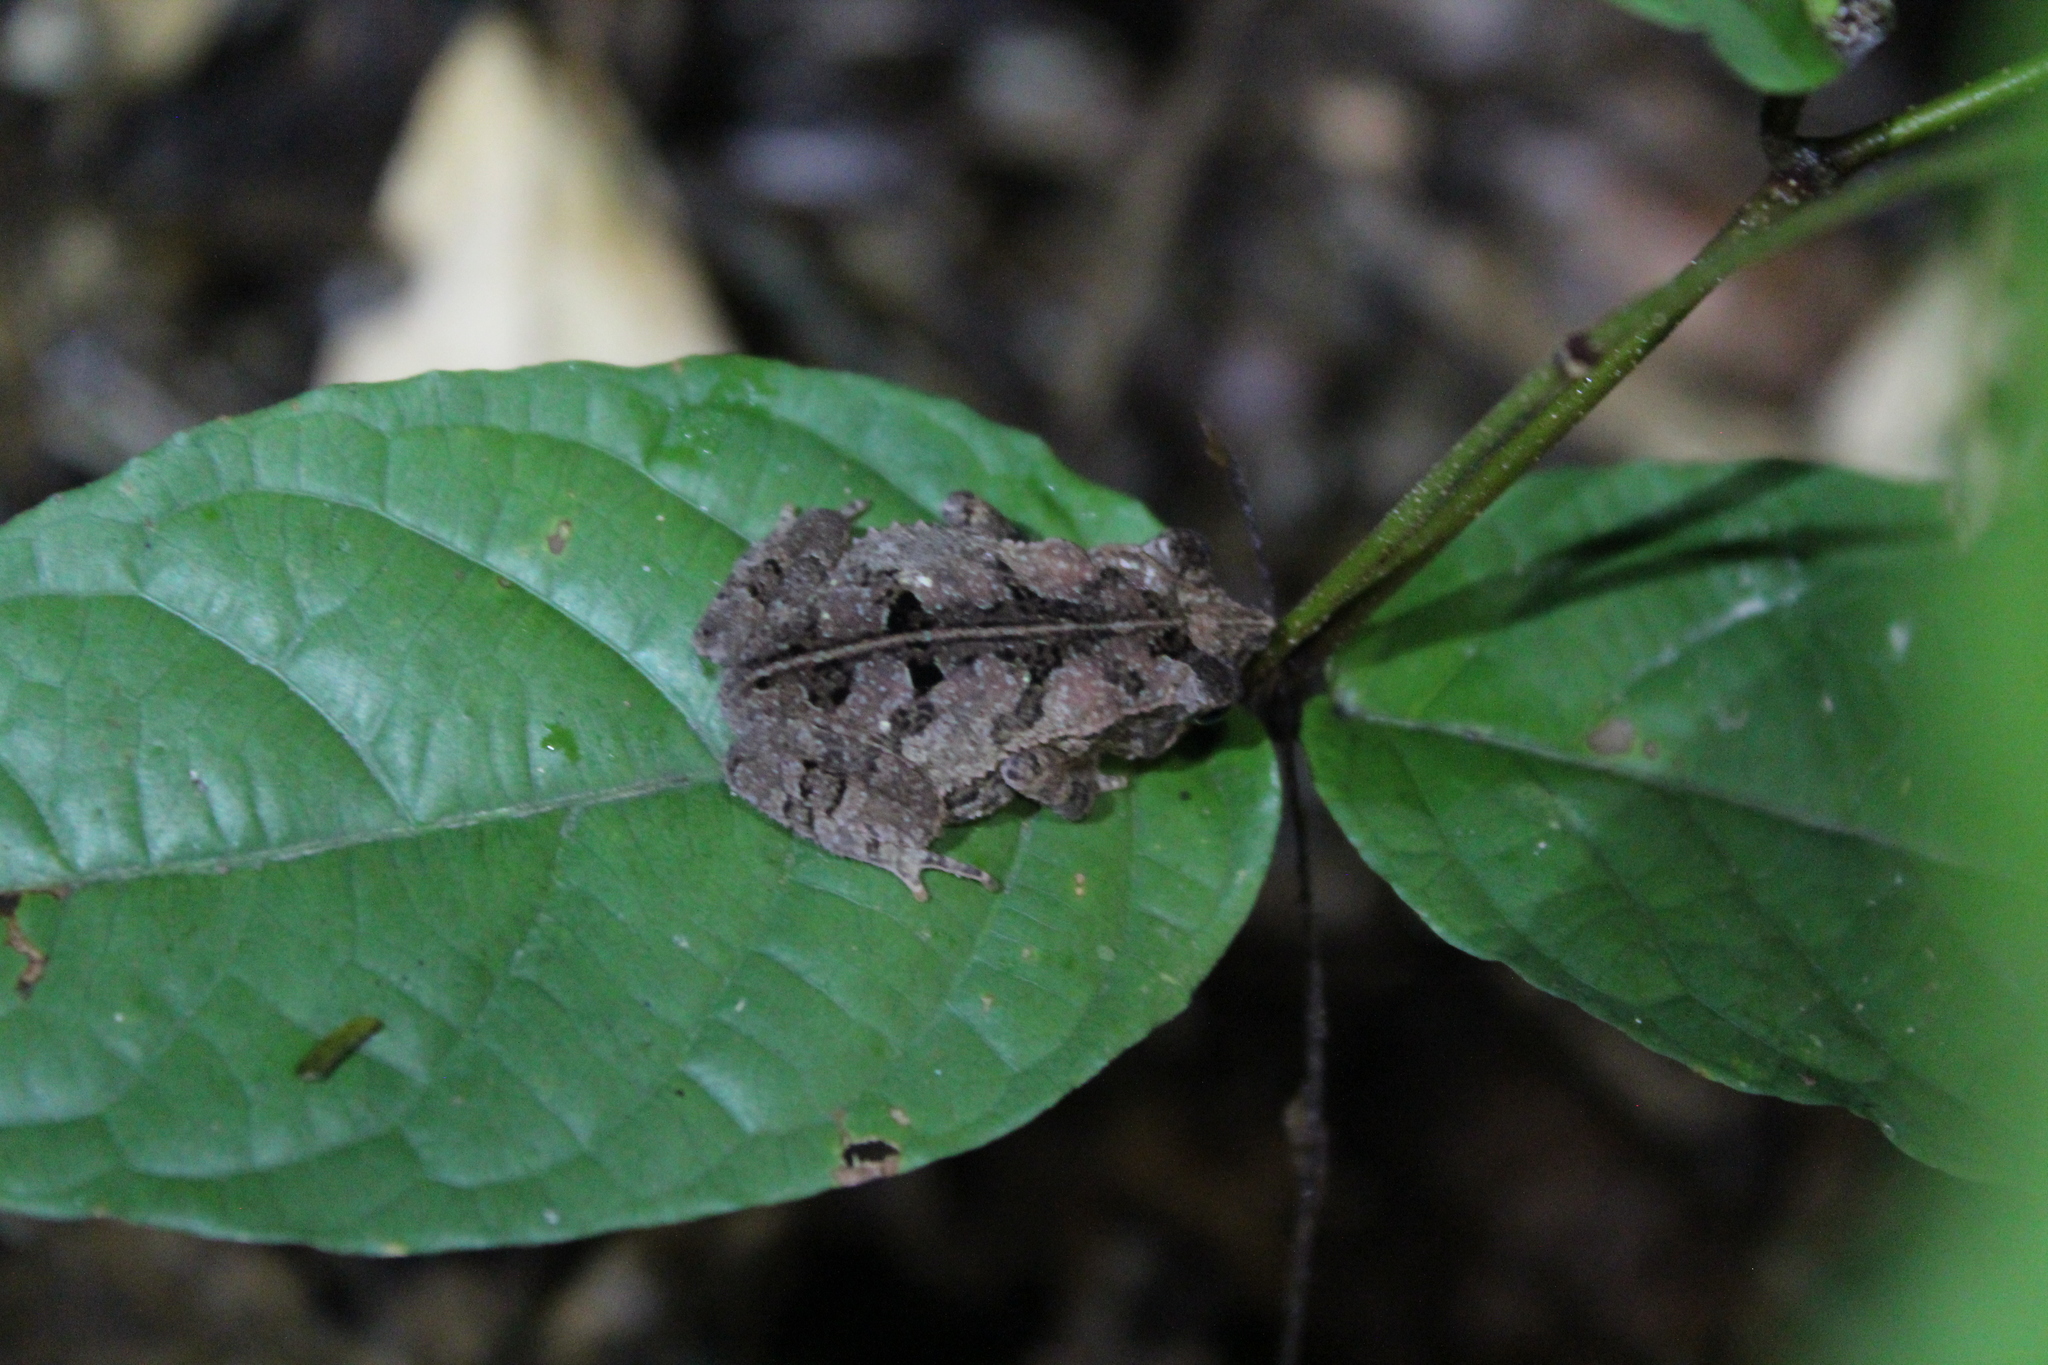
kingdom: Animalia
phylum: Chordata
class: Amphibia
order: Anura
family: Bufonidae
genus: Rhinella
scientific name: Rhinella margaritifera
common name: Mitred toad
